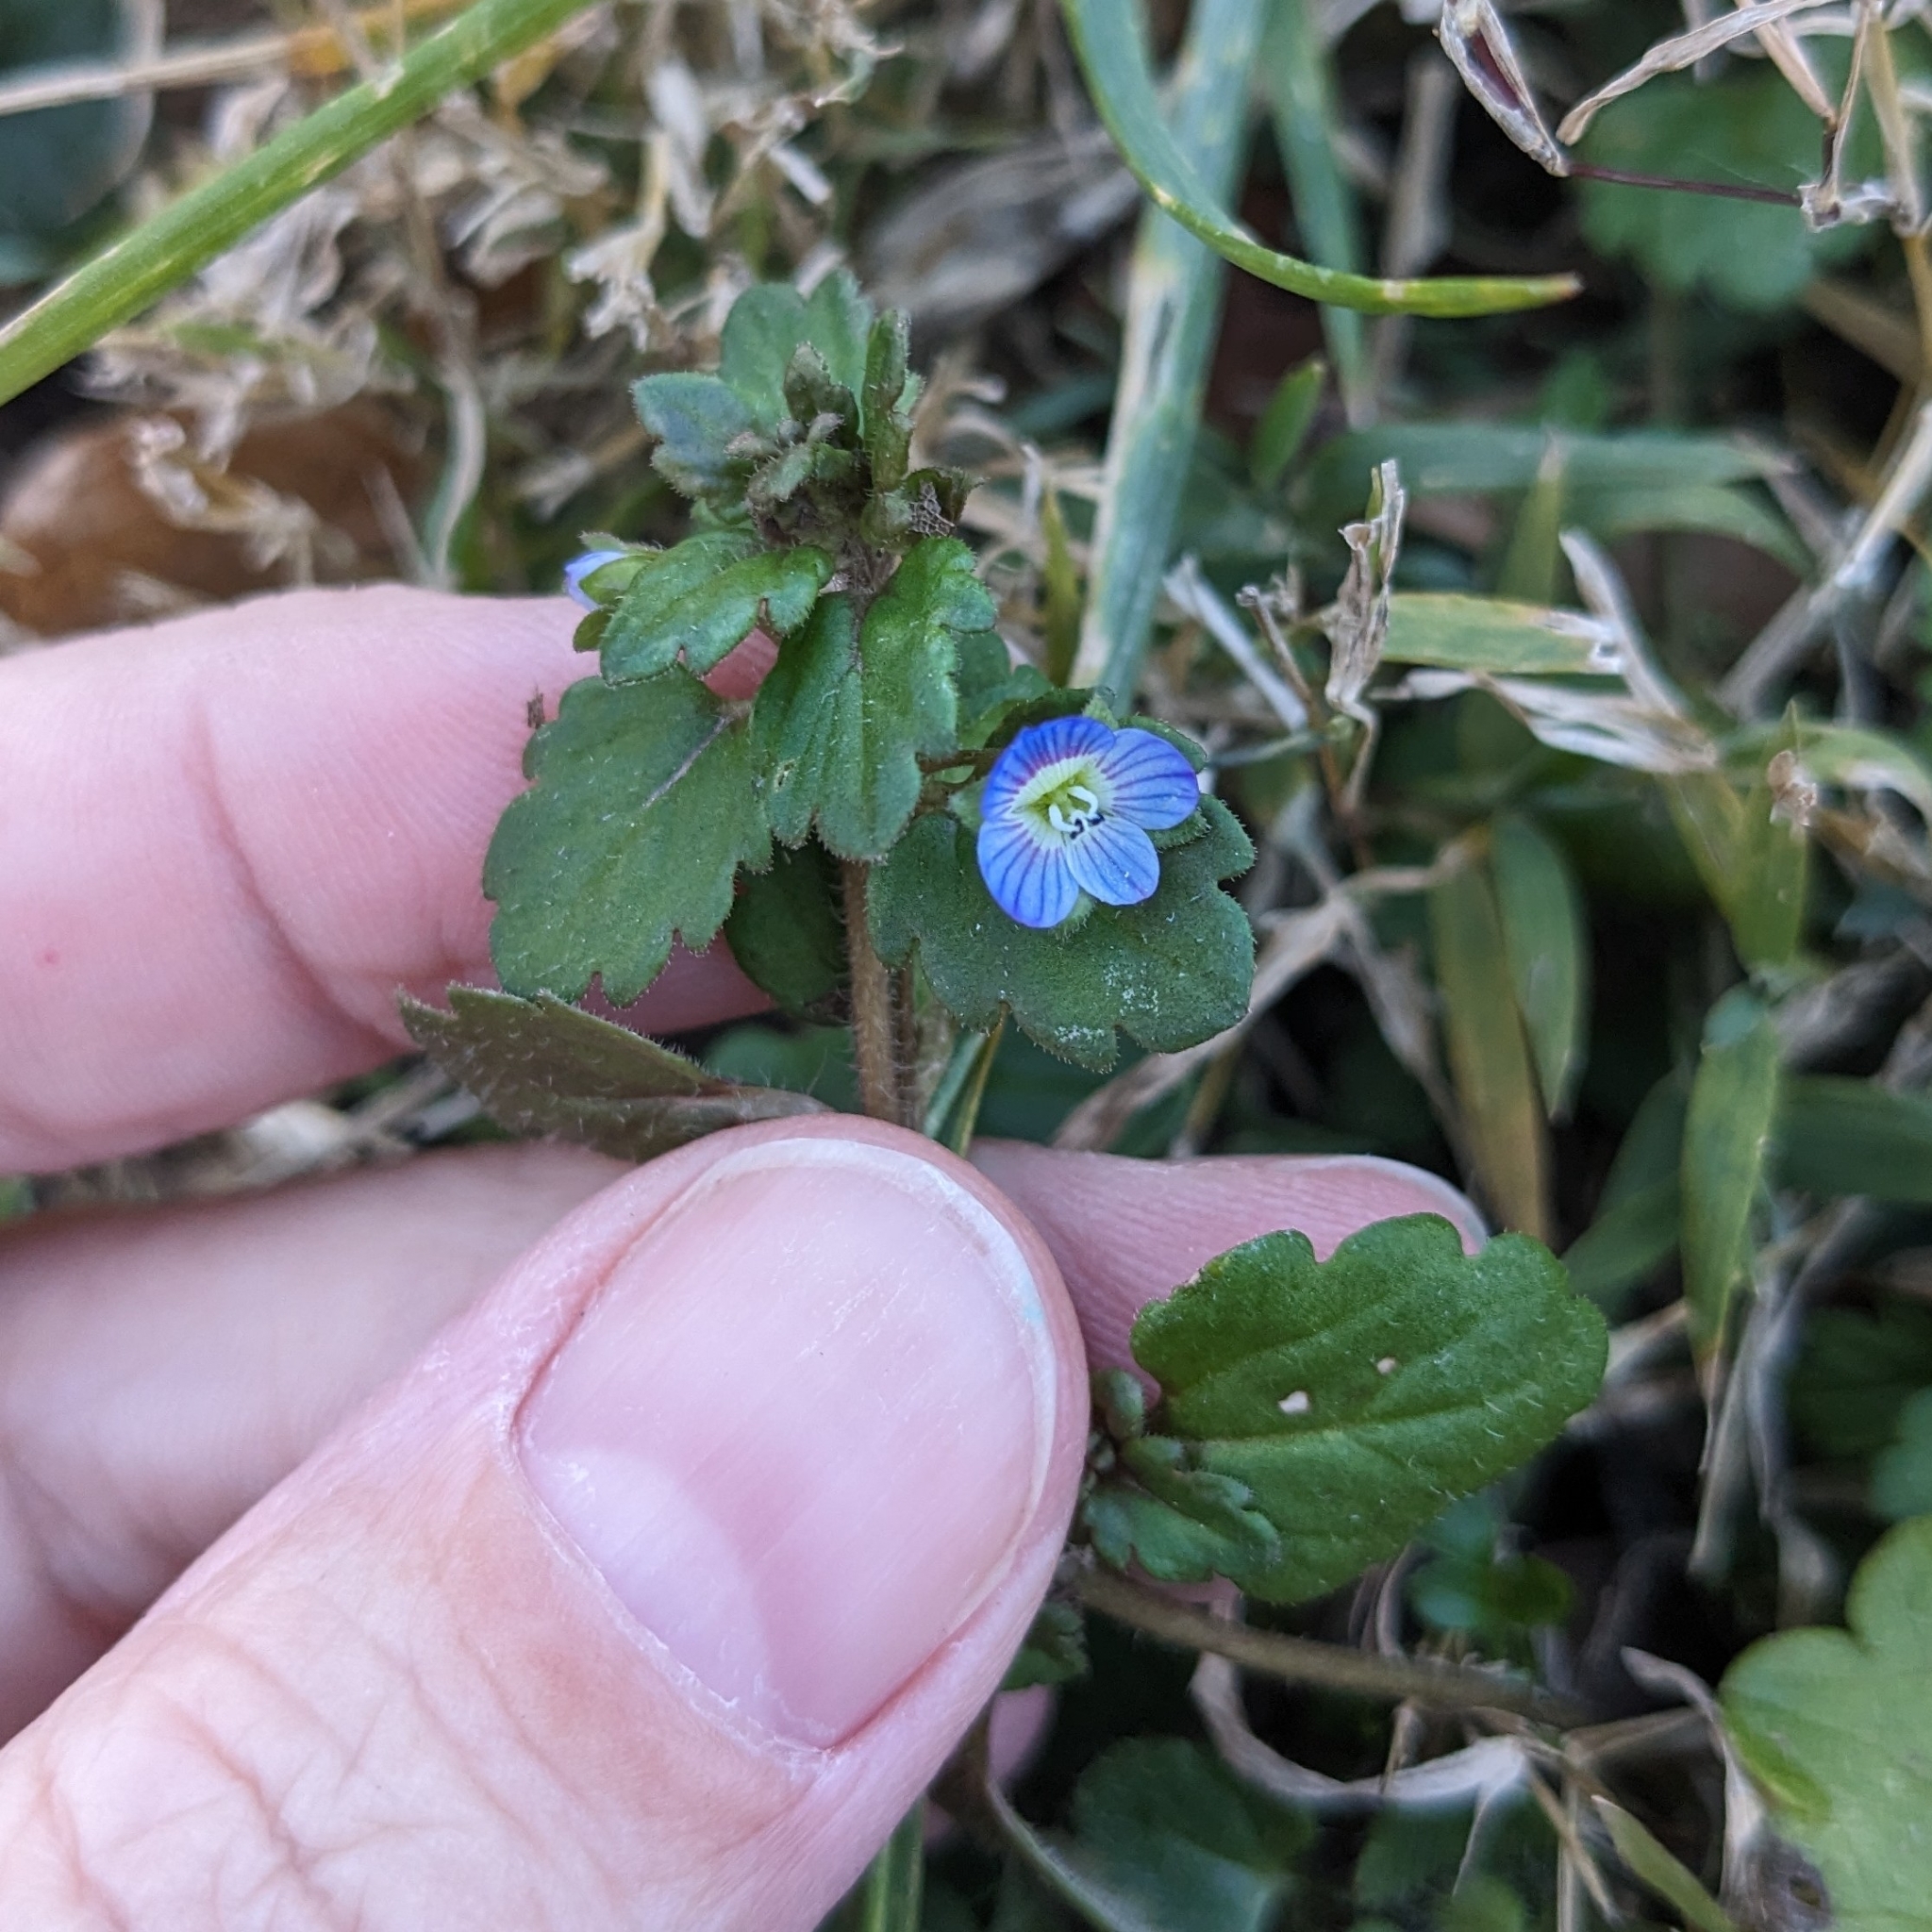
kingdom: Plantae
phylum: Tracheophyta
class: Magnoliopsida
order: Lamiales
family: Plantaginaceae
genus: Veronica
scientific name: Veronica persica
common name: Common field-speedwell
